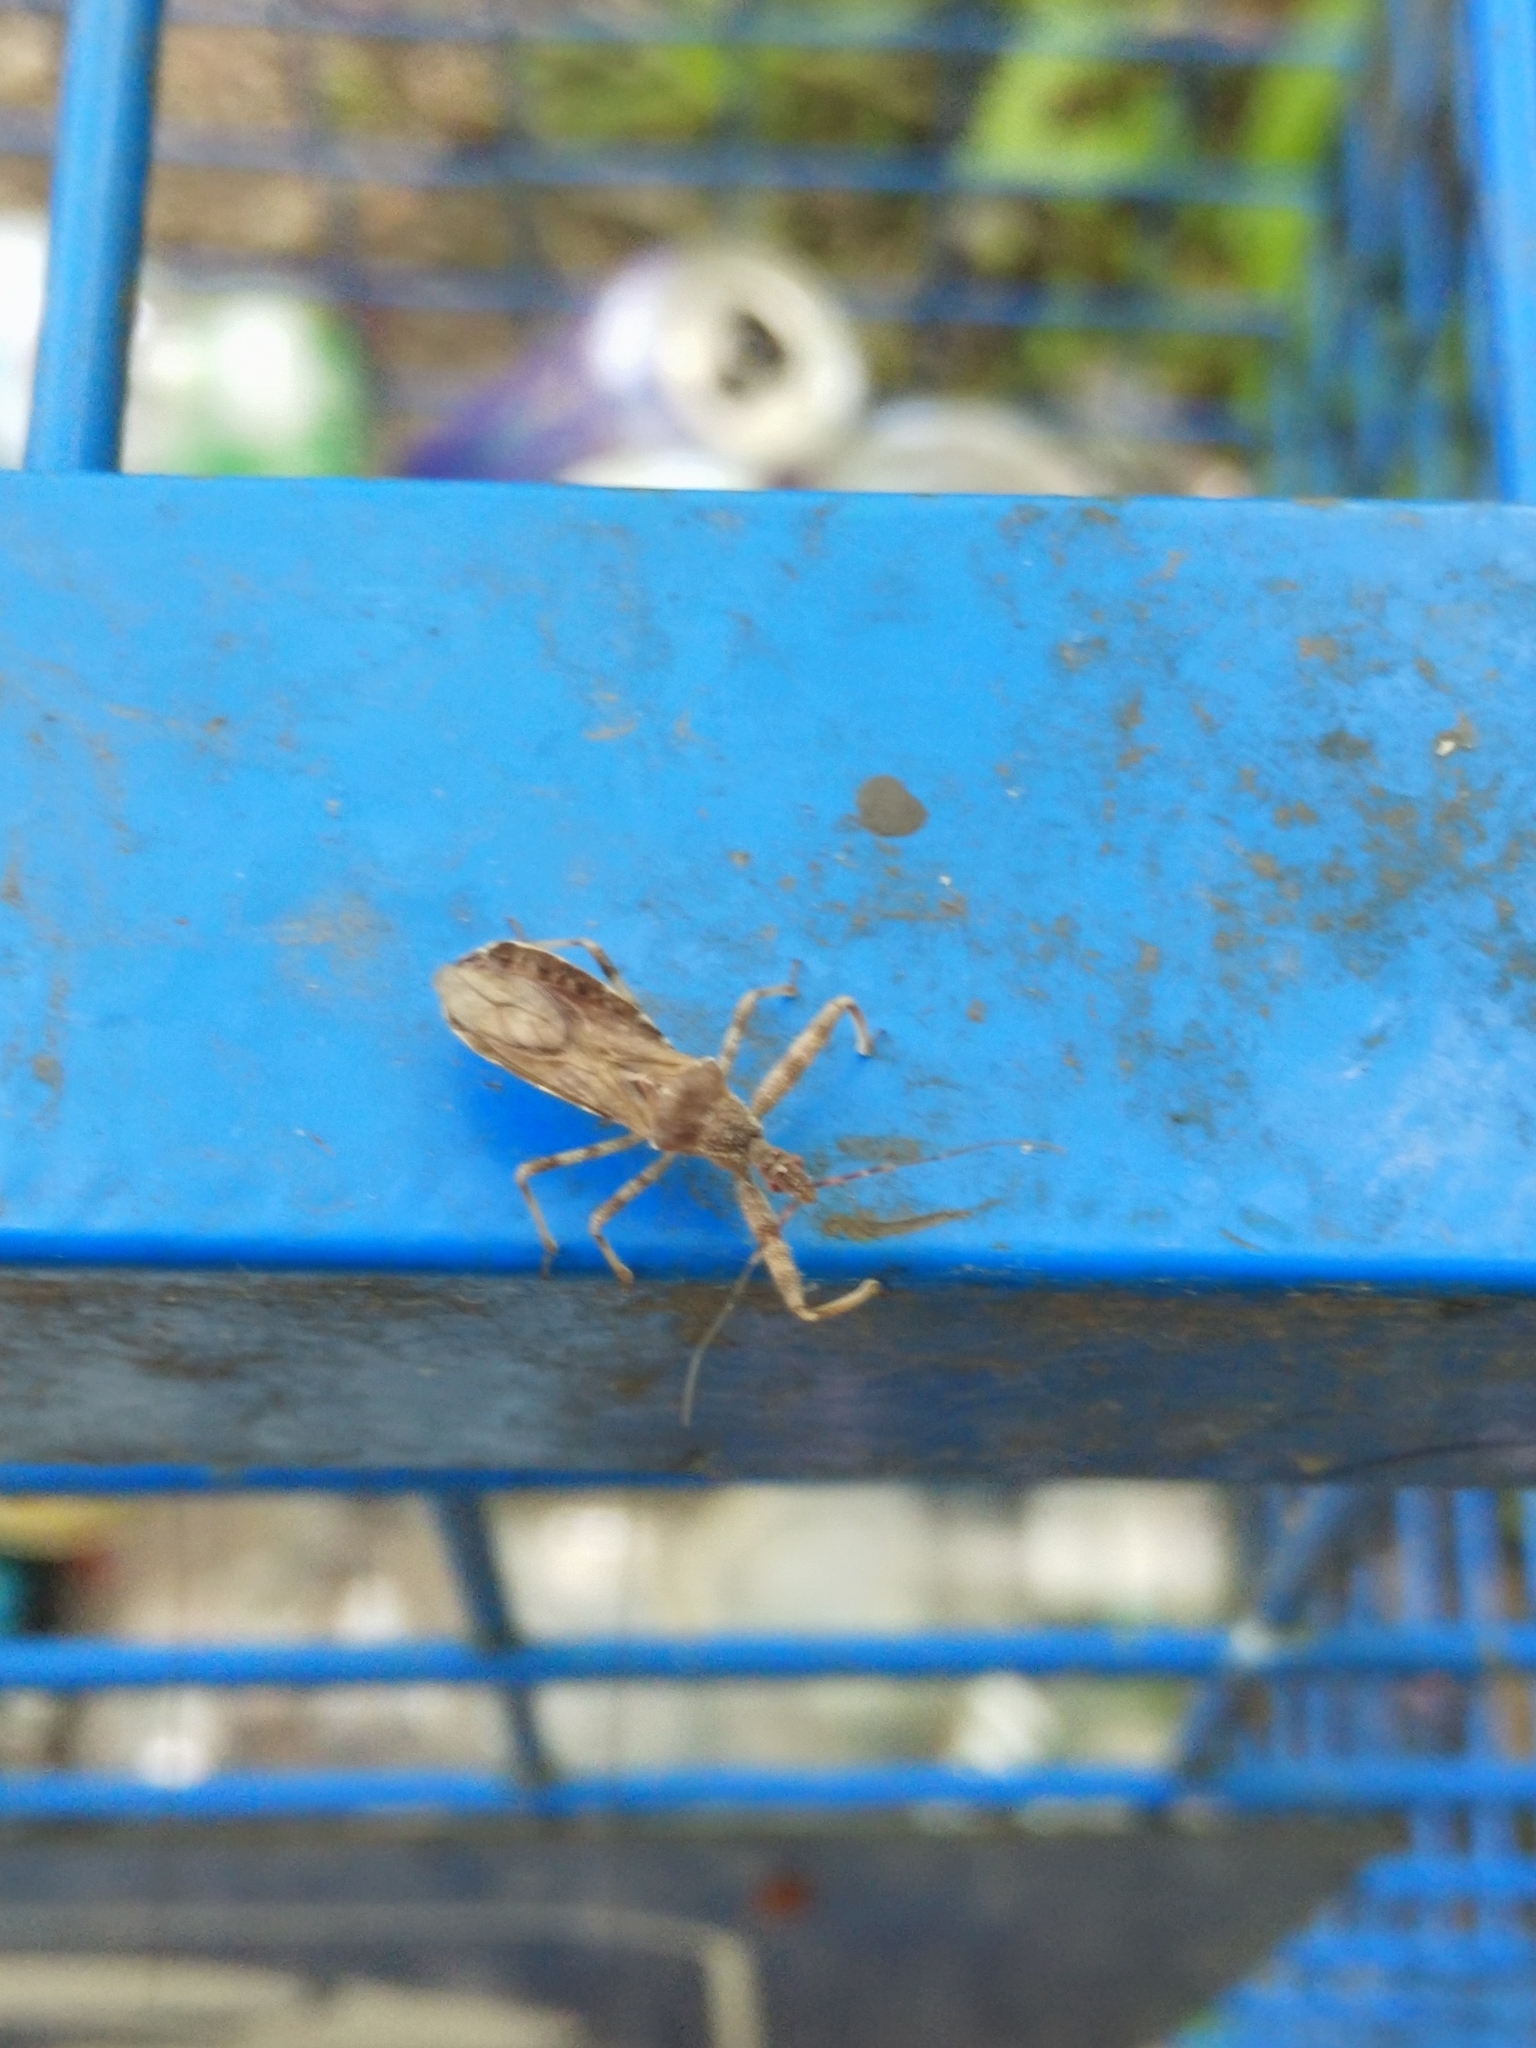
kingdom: Animalia
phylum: Arthropoda
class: Insecta
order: Hemiptera
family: Reduviidae
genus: Acholla
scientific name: Acholla multispinosa
